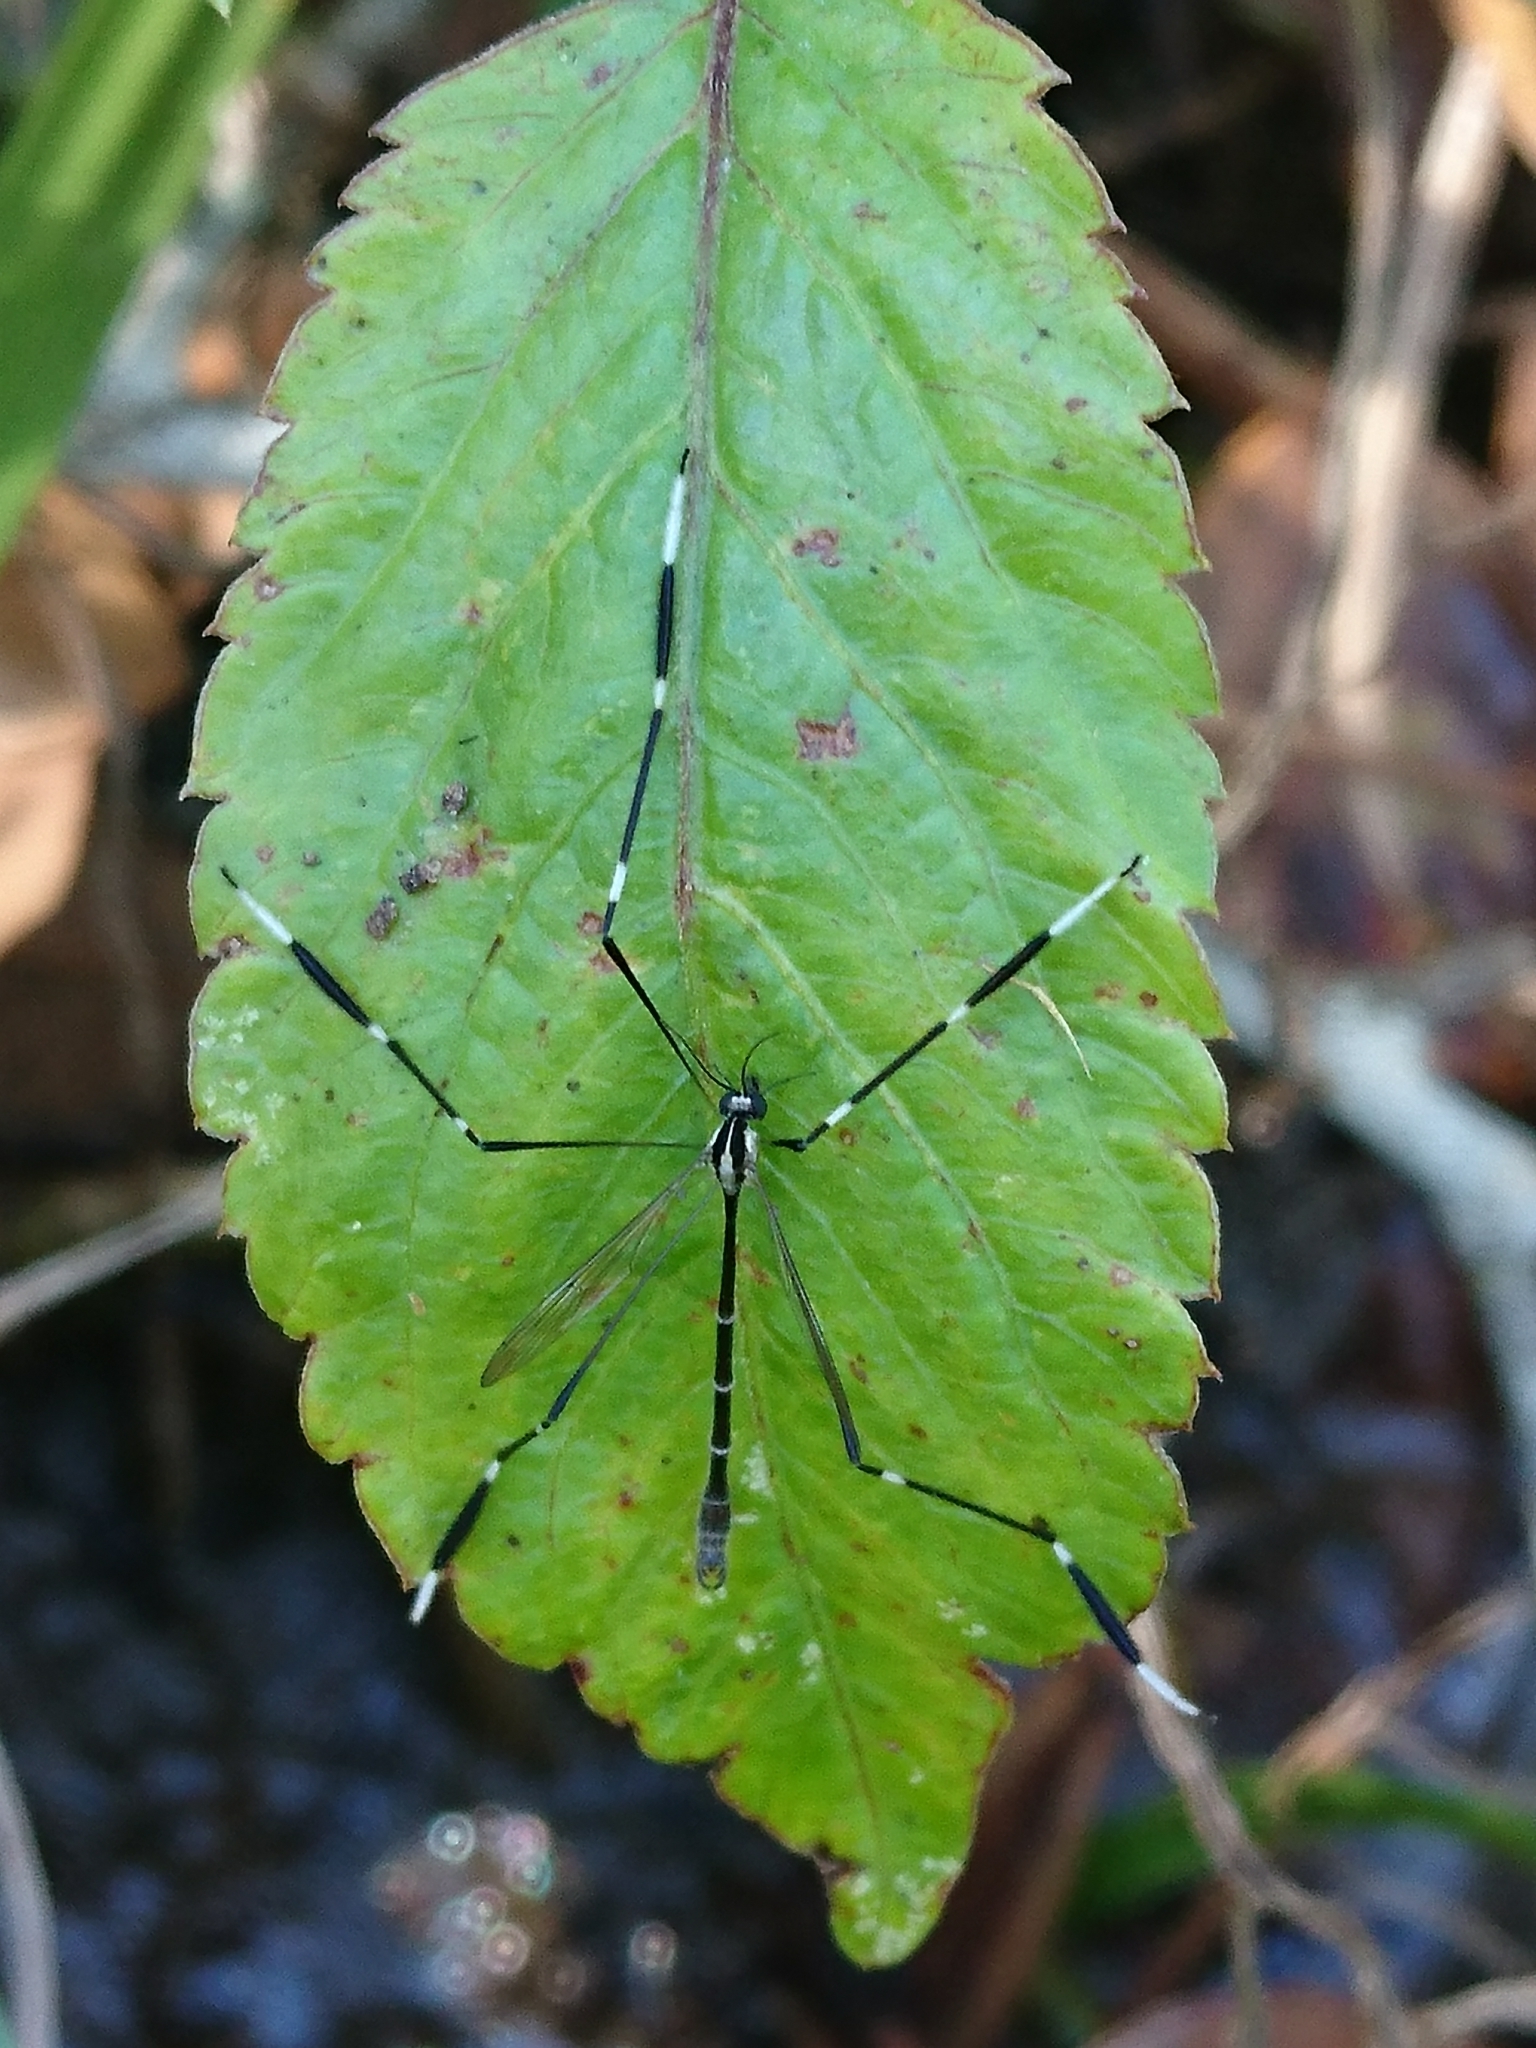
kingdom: Animalia
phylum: Arthropoda
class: Insecta
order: Diptera
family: Ptychopteridae
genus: Bittacomorpha
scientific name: Bittacomorpha clavipes
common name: Eastern phantom crane fly
